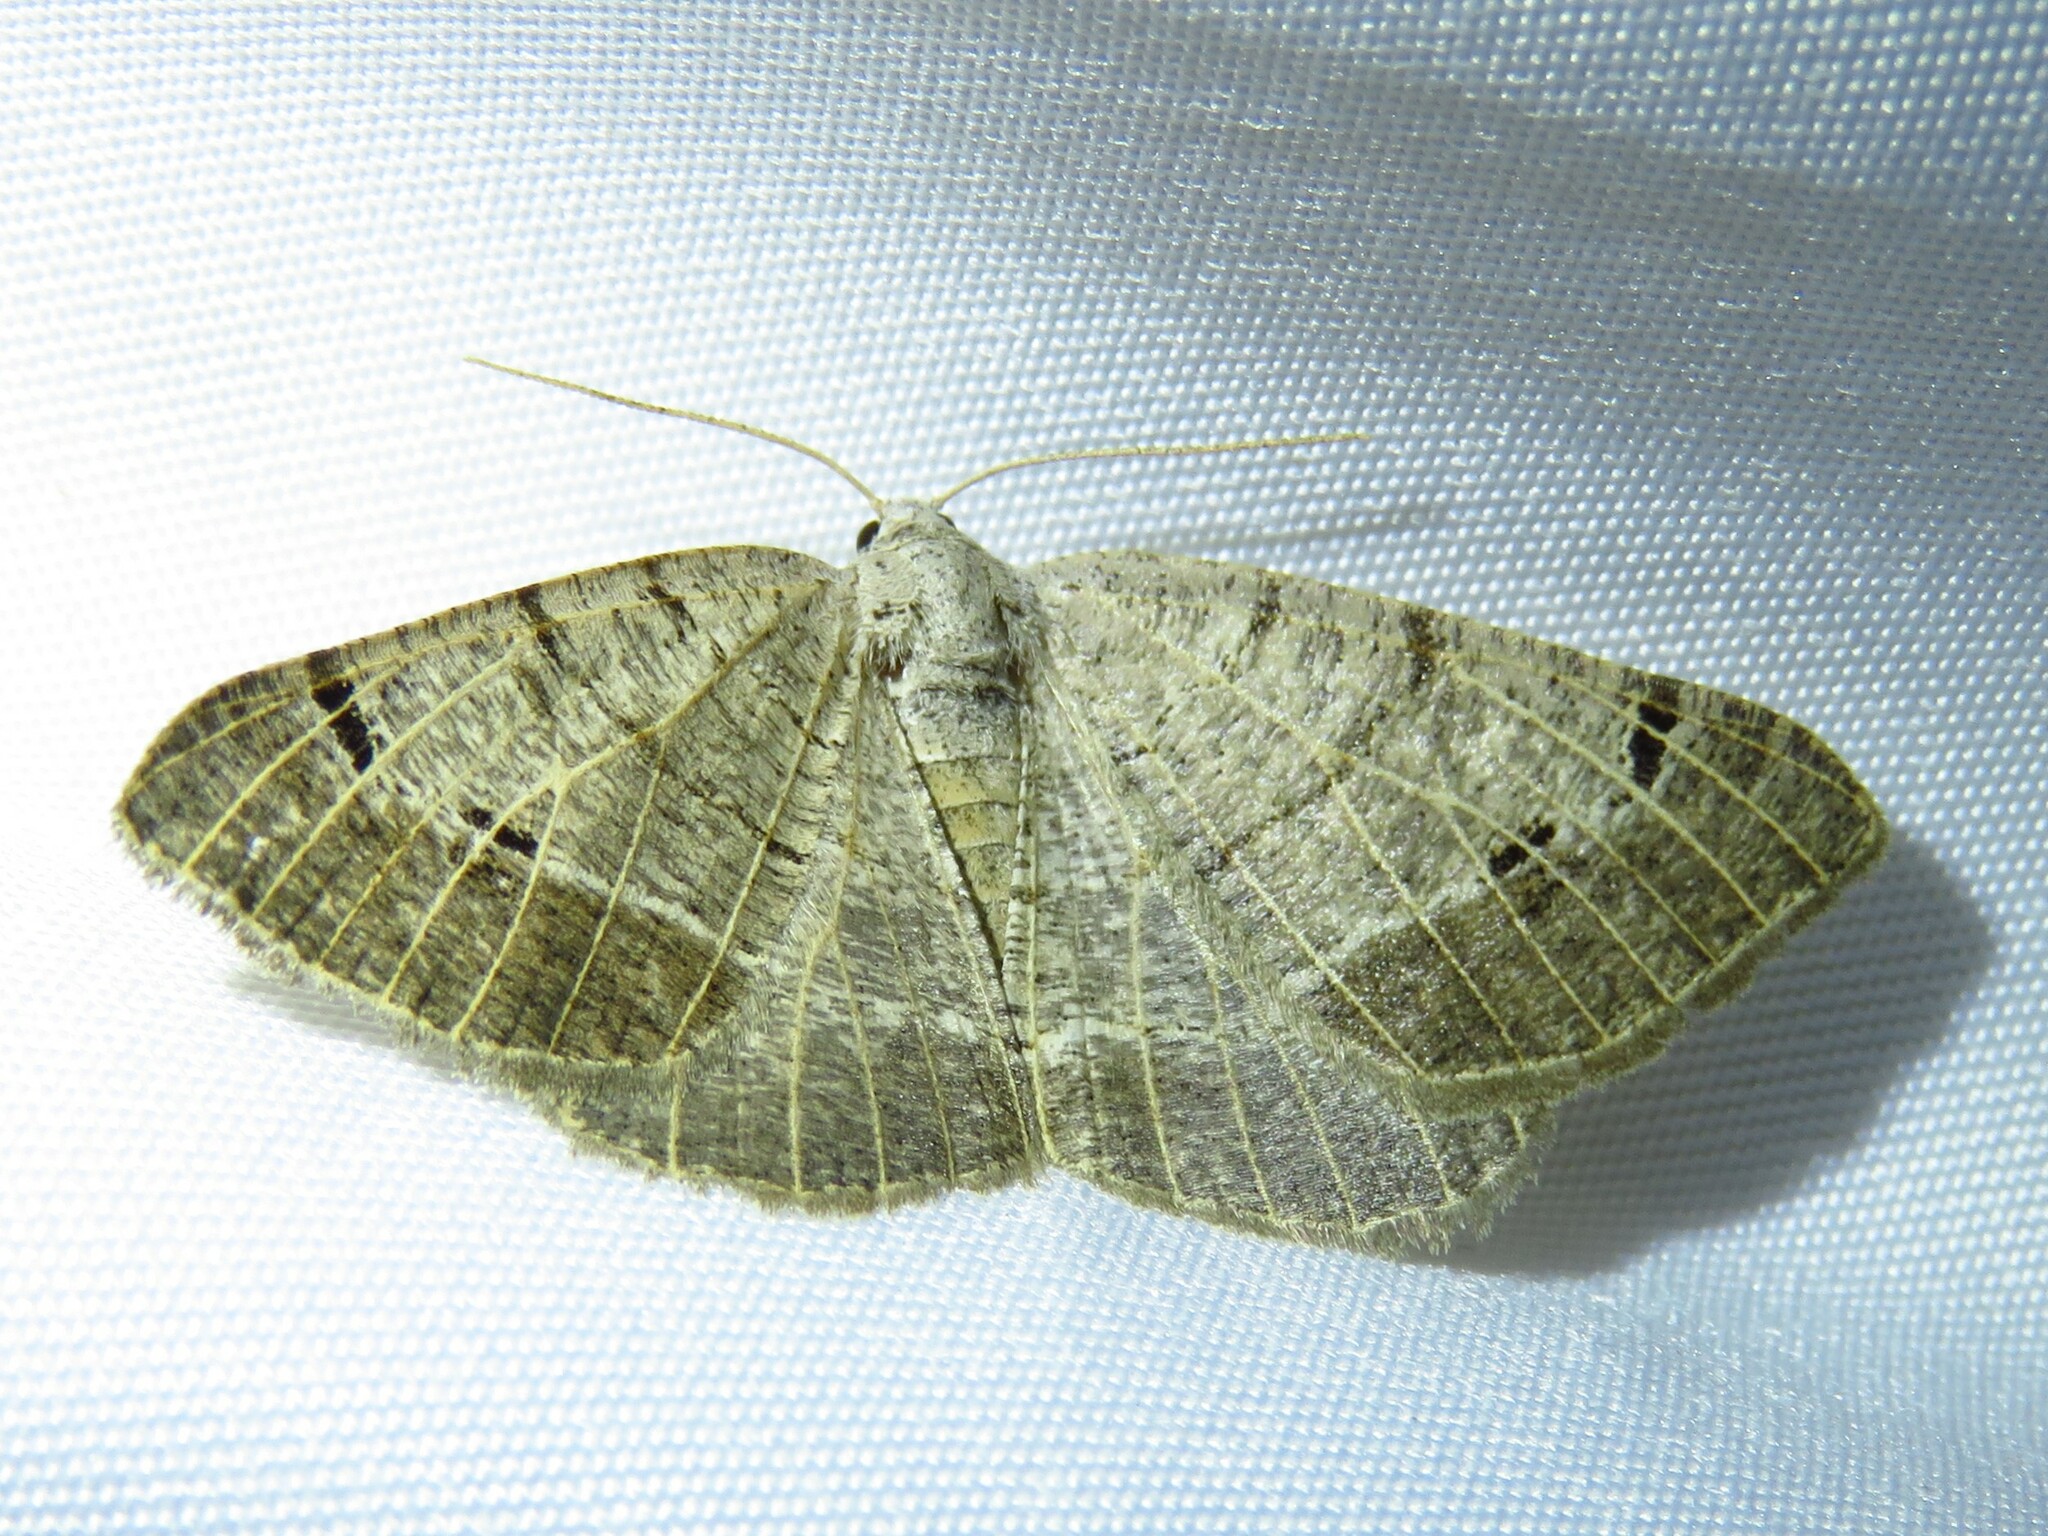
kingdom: Animalia
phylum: Arthropoda
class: Insecta
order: Lepidoptera
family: Geometridae
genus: Isturgia
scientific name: Isturgia dislocaria
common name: Pale-viened enconista
